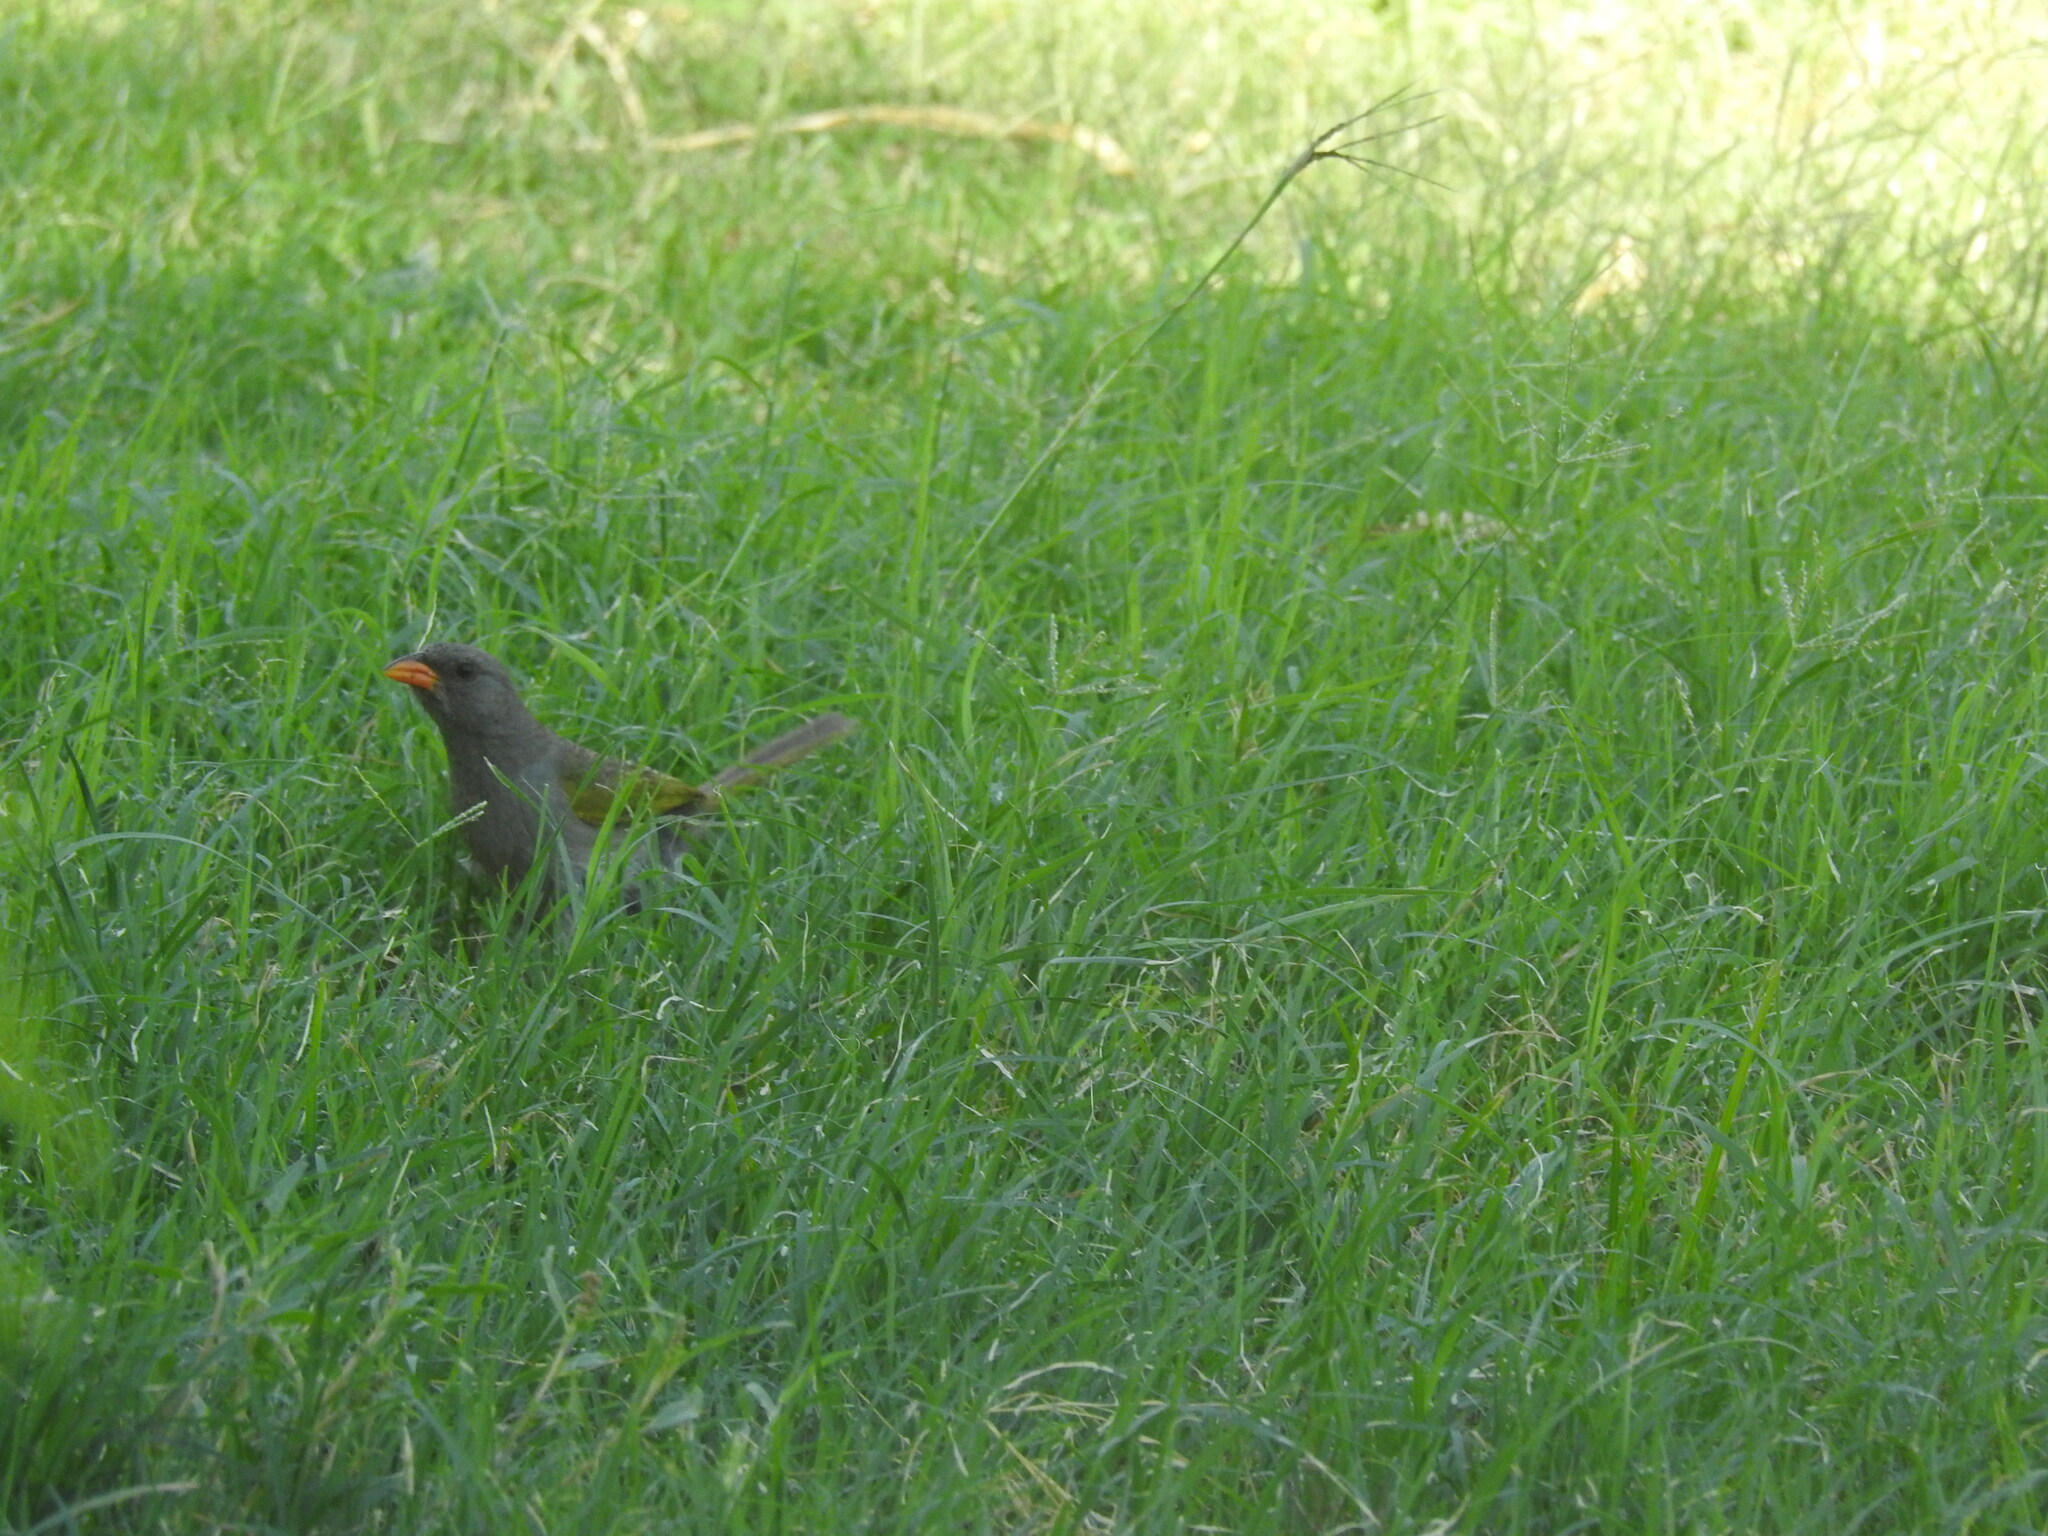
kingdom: Animalia
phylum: Chordata
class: Aves
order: Passeriformes
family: Thraupidae
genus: Embernagra
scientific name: Embernagra platensis
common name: Pampa finch
